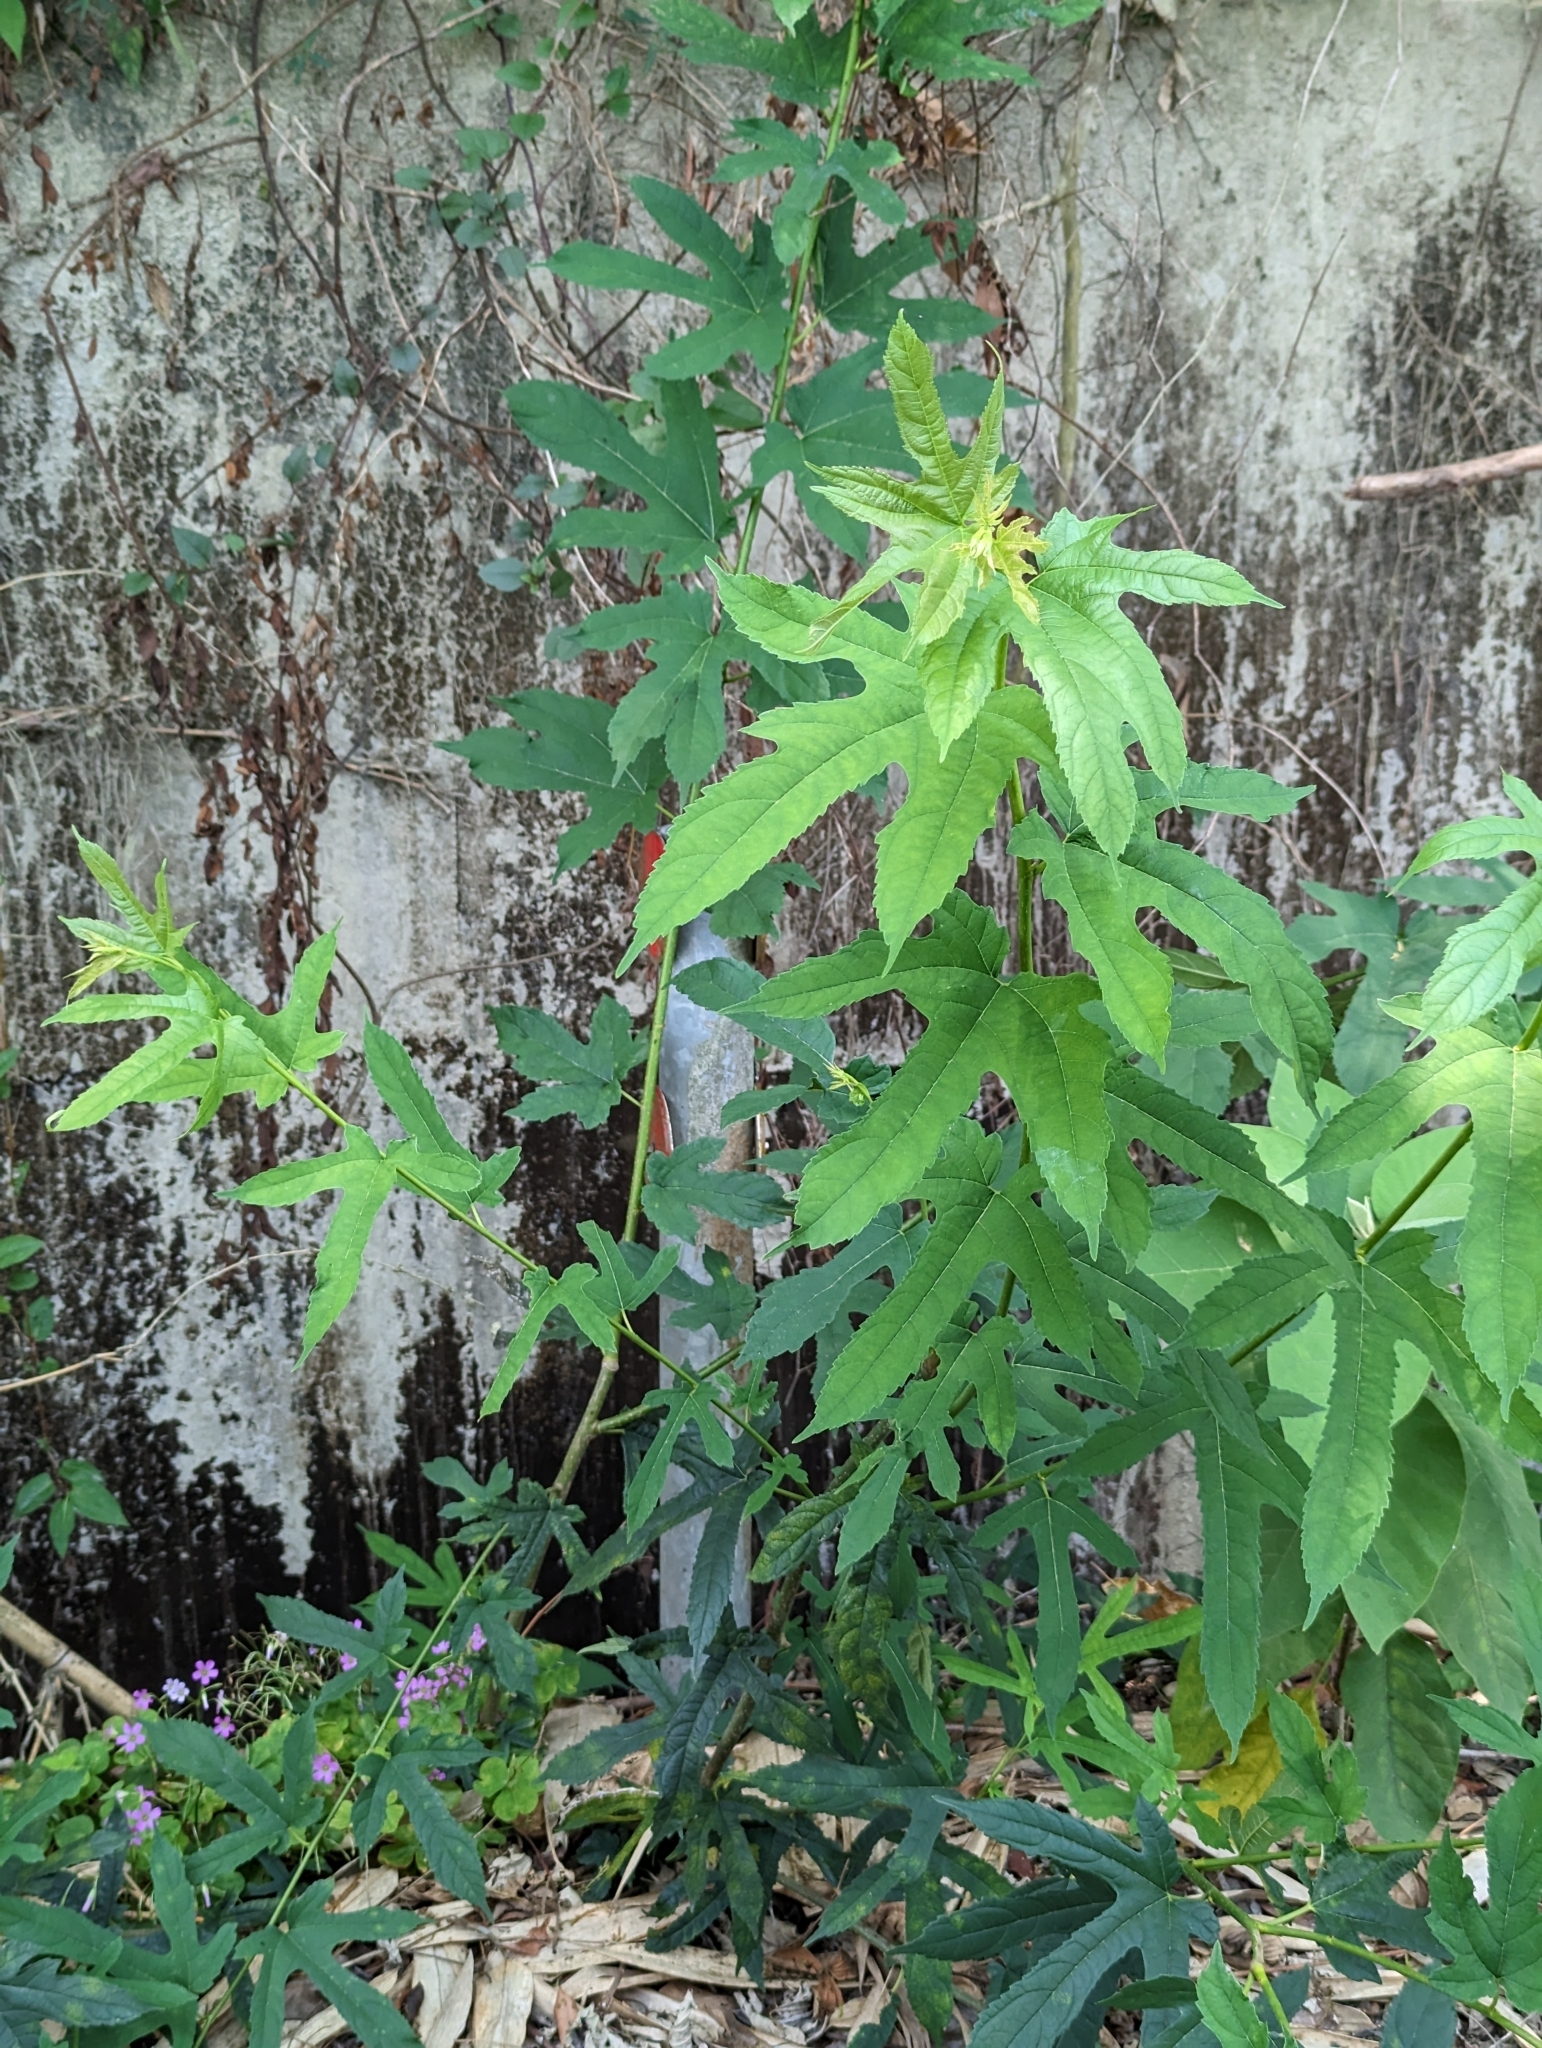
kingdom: Plantae
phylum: Tracheophyta
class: Magnoliopsida
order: Rosales
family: Moraceae
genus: Morus
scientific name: Morus indica
